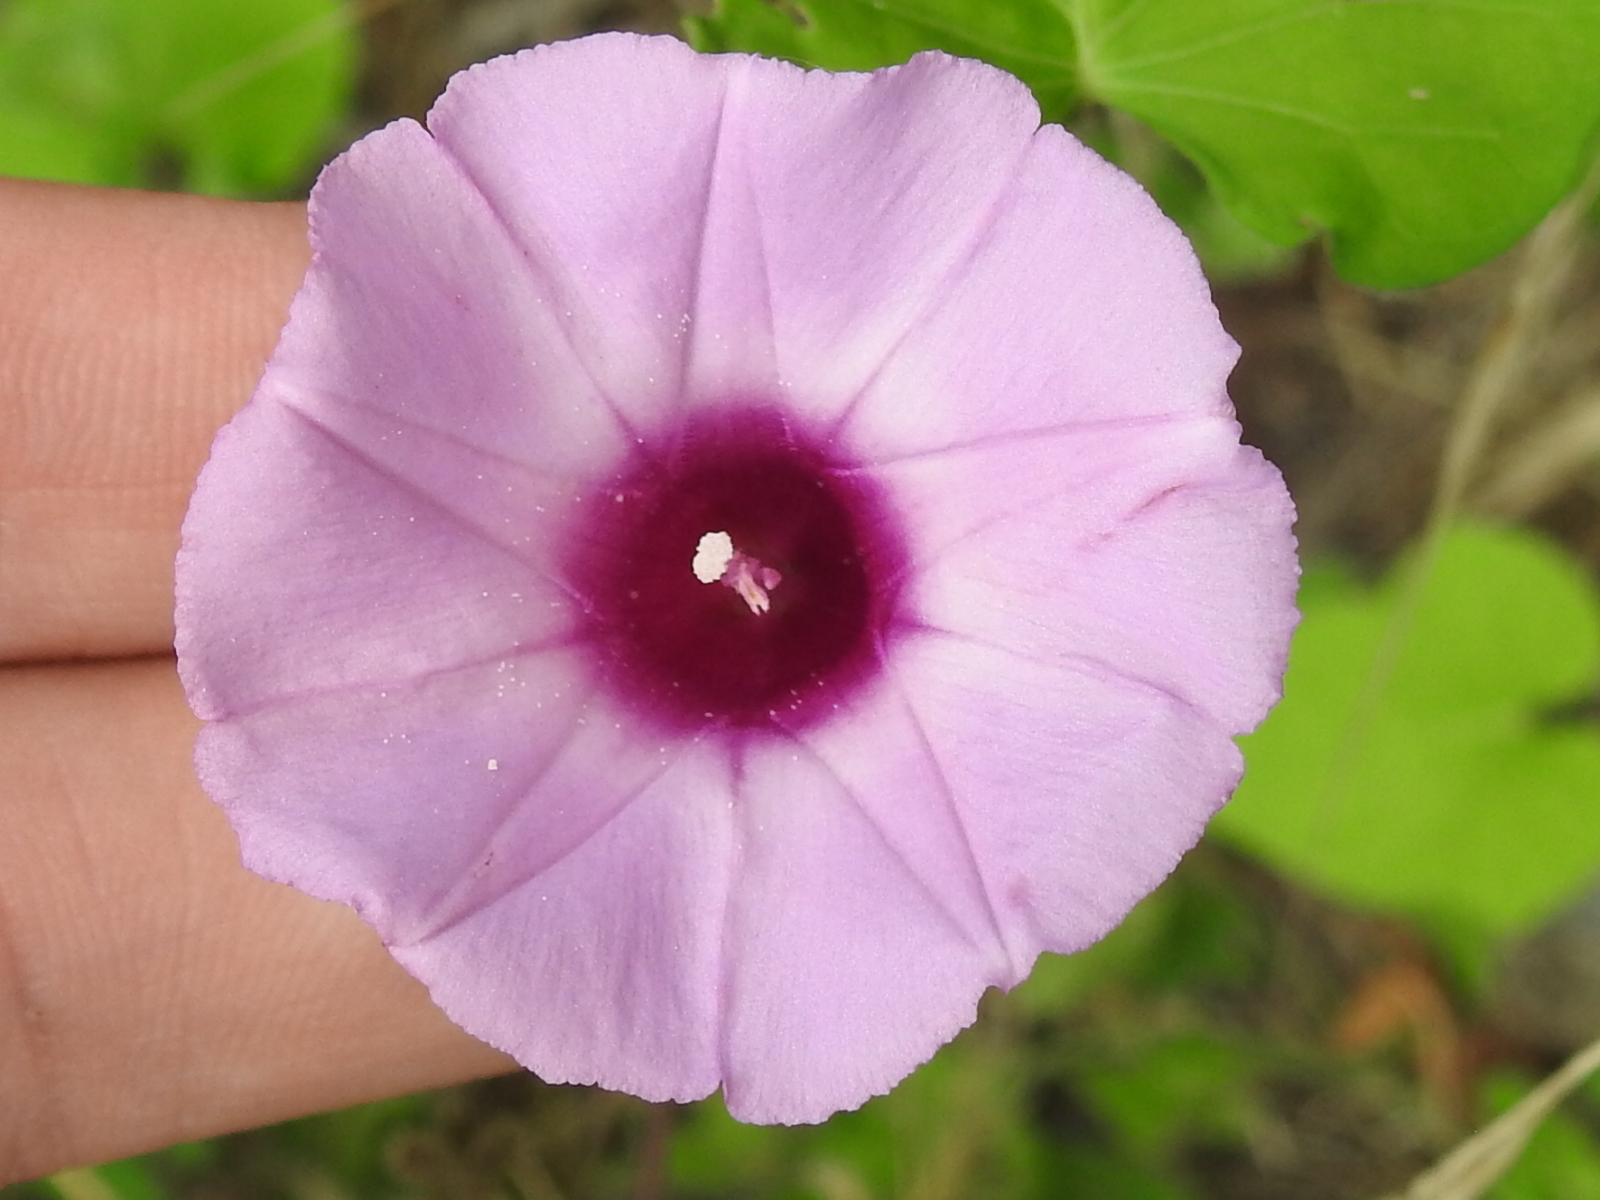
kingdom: Plantae
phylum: Tracheophyta
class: Magnoliopsida
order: Solanales
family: Convolvulaceae
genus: Ipomoea
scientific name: Ipomoea cordatotriloba
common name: Cotton morning glory
